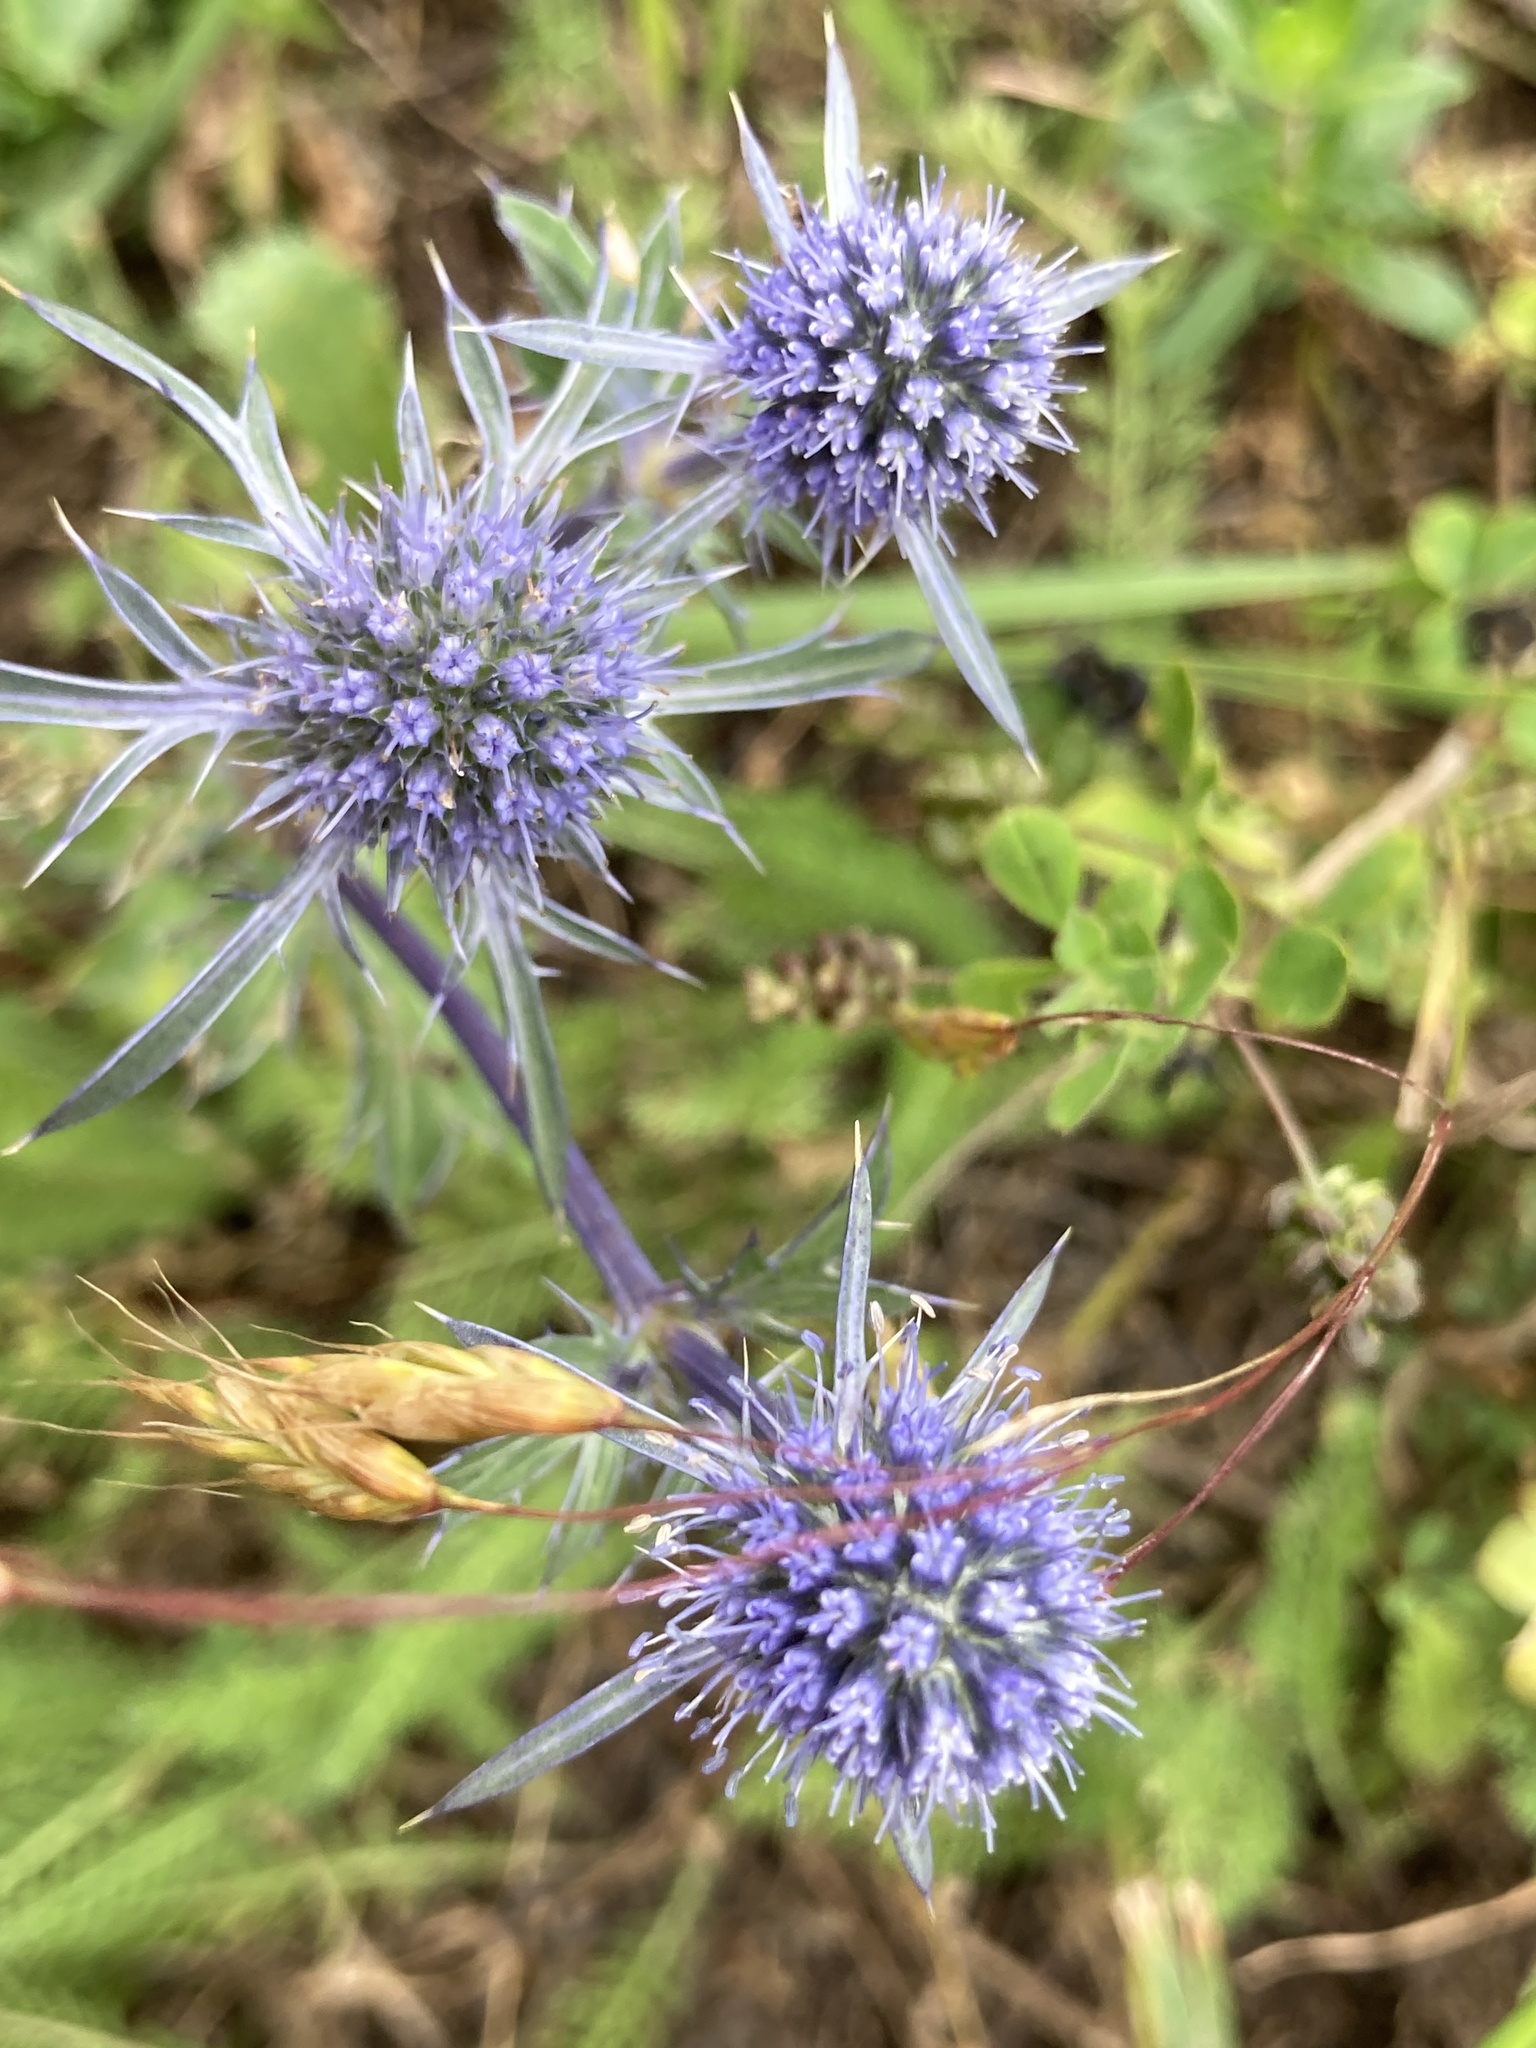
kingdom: Plantae
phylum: Tracheophyta
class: Magnoliopsida
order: Apiales
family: Apiaceae
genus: Eryngium
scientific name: Eryngium caeruleum
